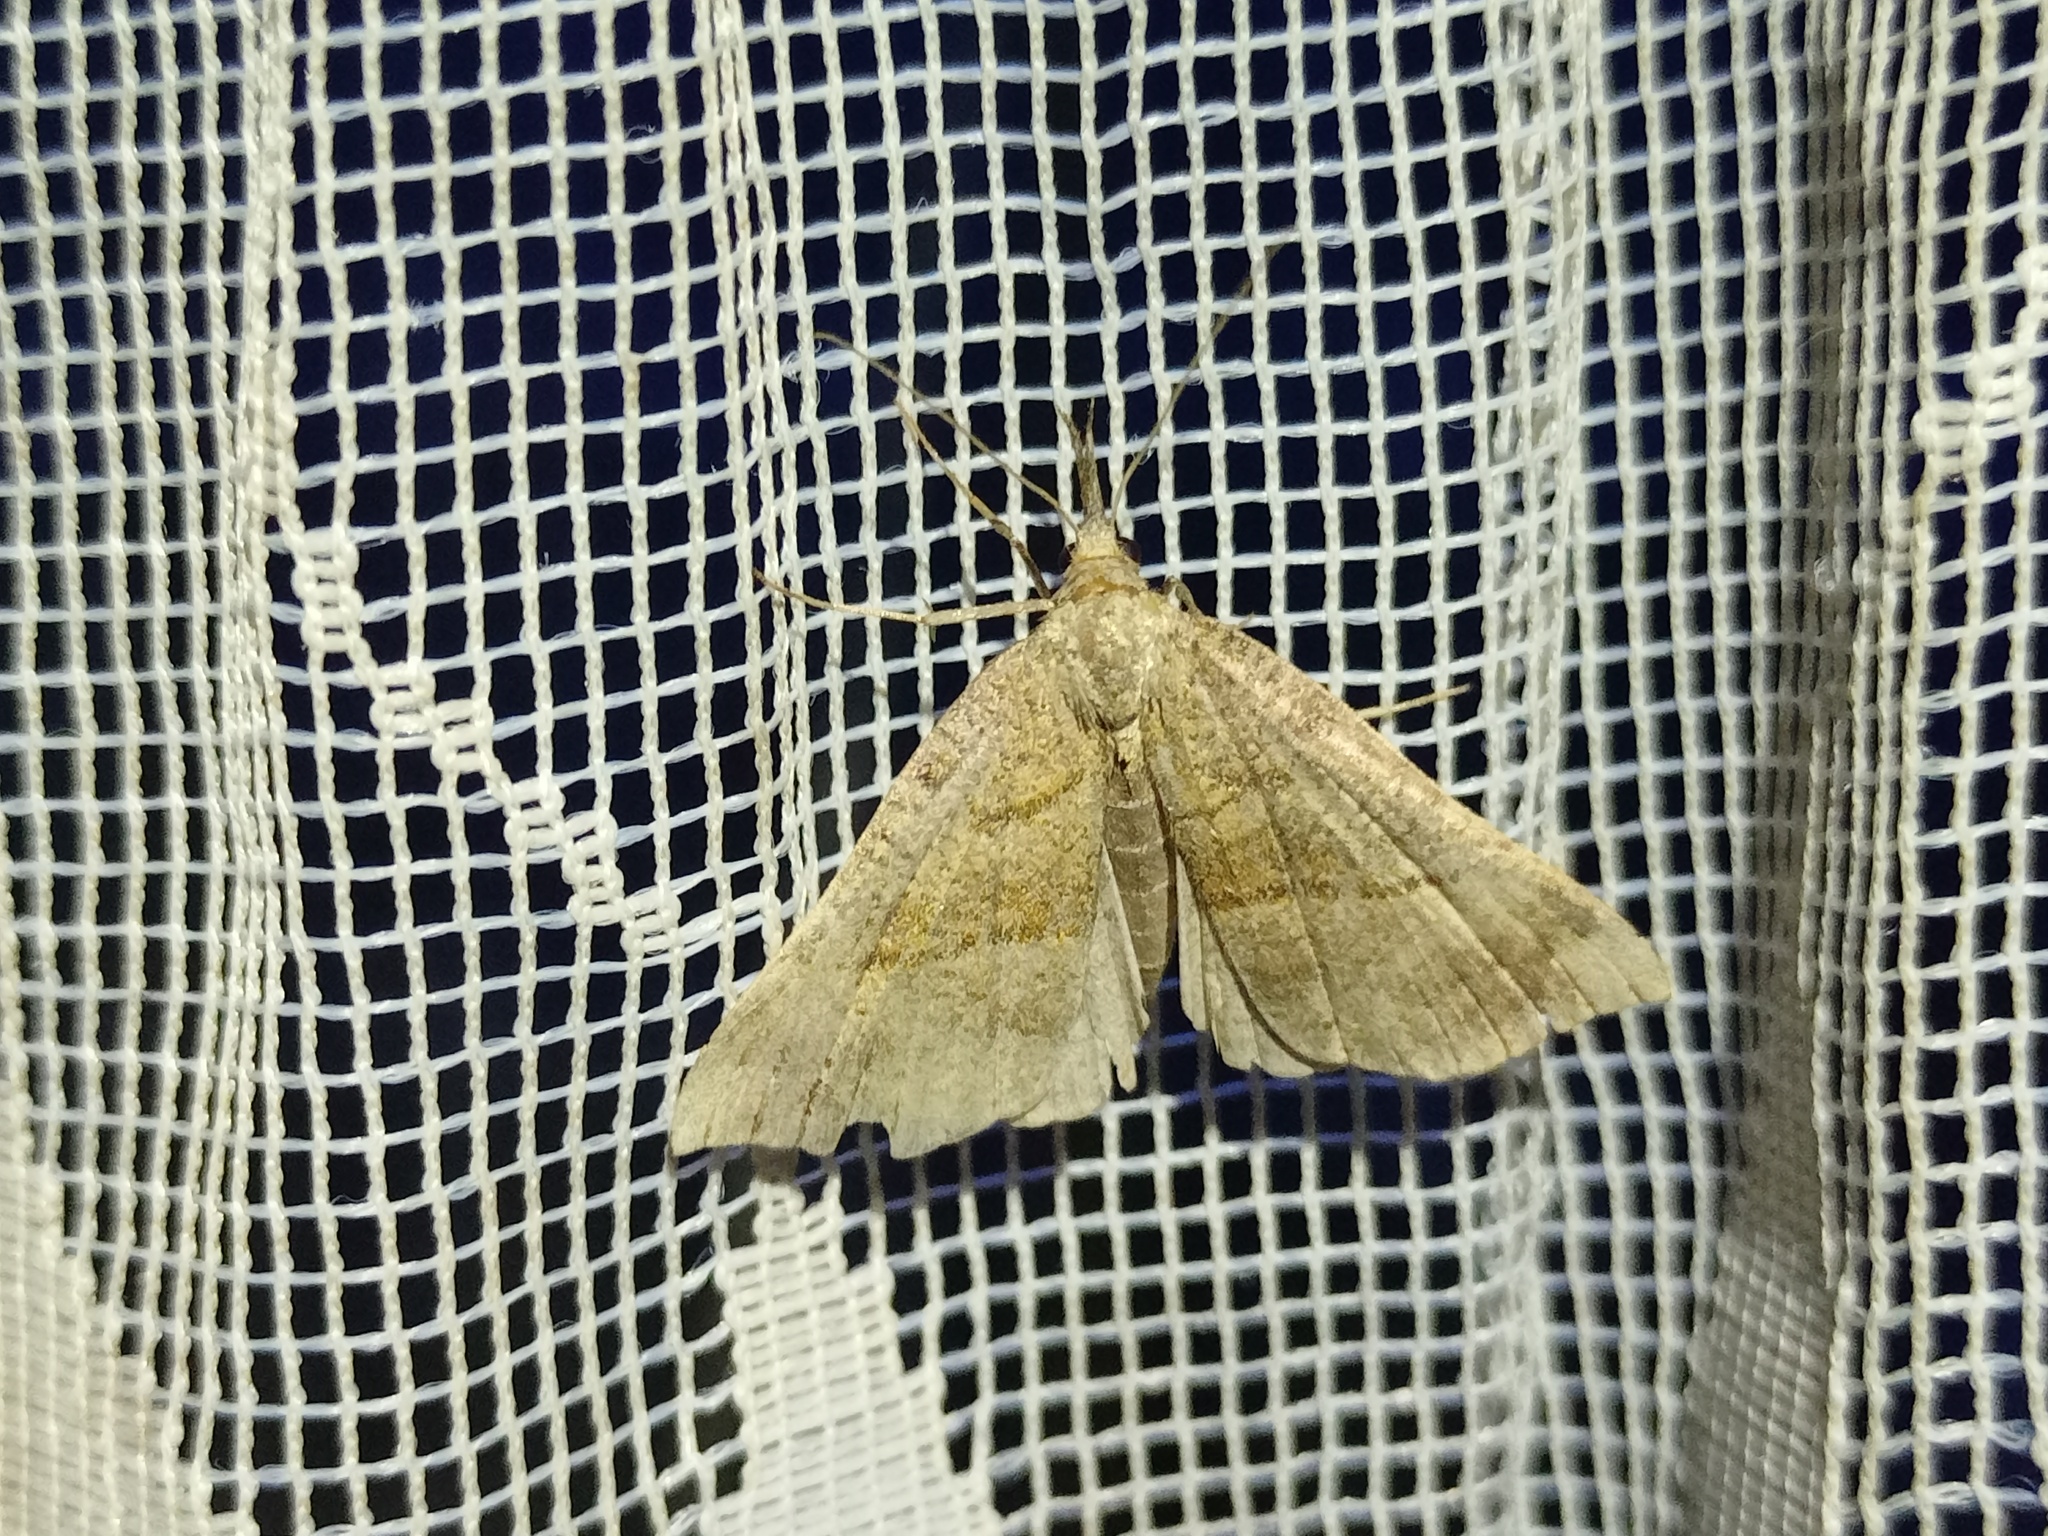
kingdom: Animalia
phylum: Arthropoda
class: Insecta
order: Lepidoptera
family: Erebidae
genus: Hypena
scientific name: Hypena proboscidalis
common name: Snout
